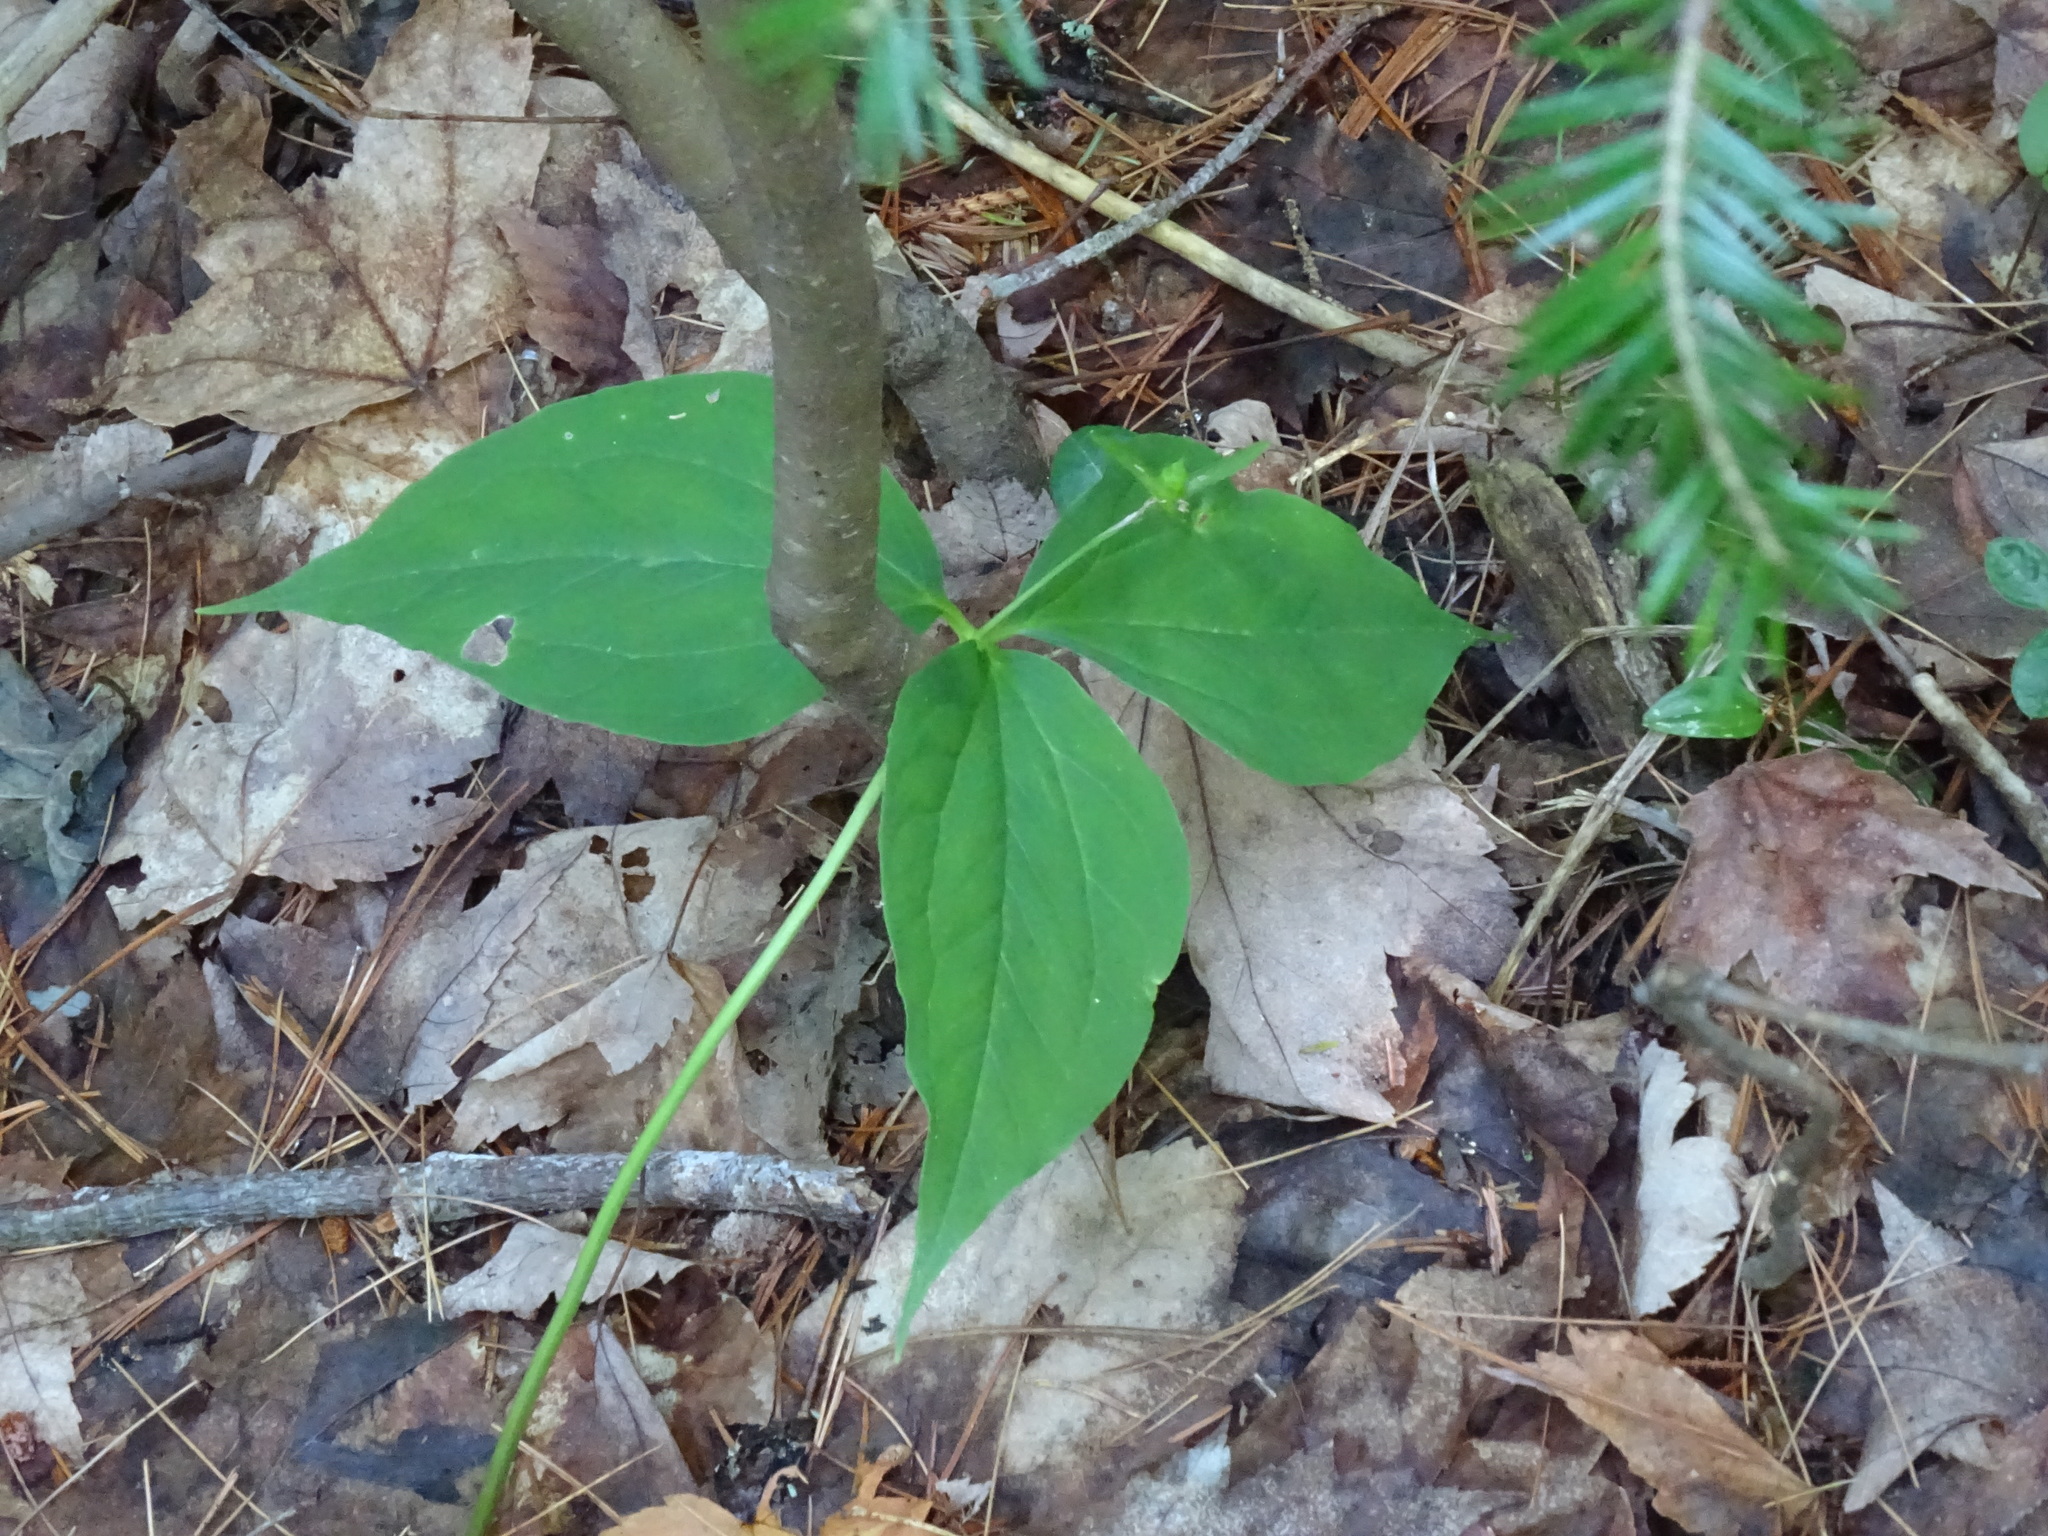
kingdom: Plantae
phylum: Tracheophyta
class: Liliopsida
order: Liliales
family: Melanthiaceae
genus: Trillium
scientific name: Trillium undulatum
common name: Paint trillium
